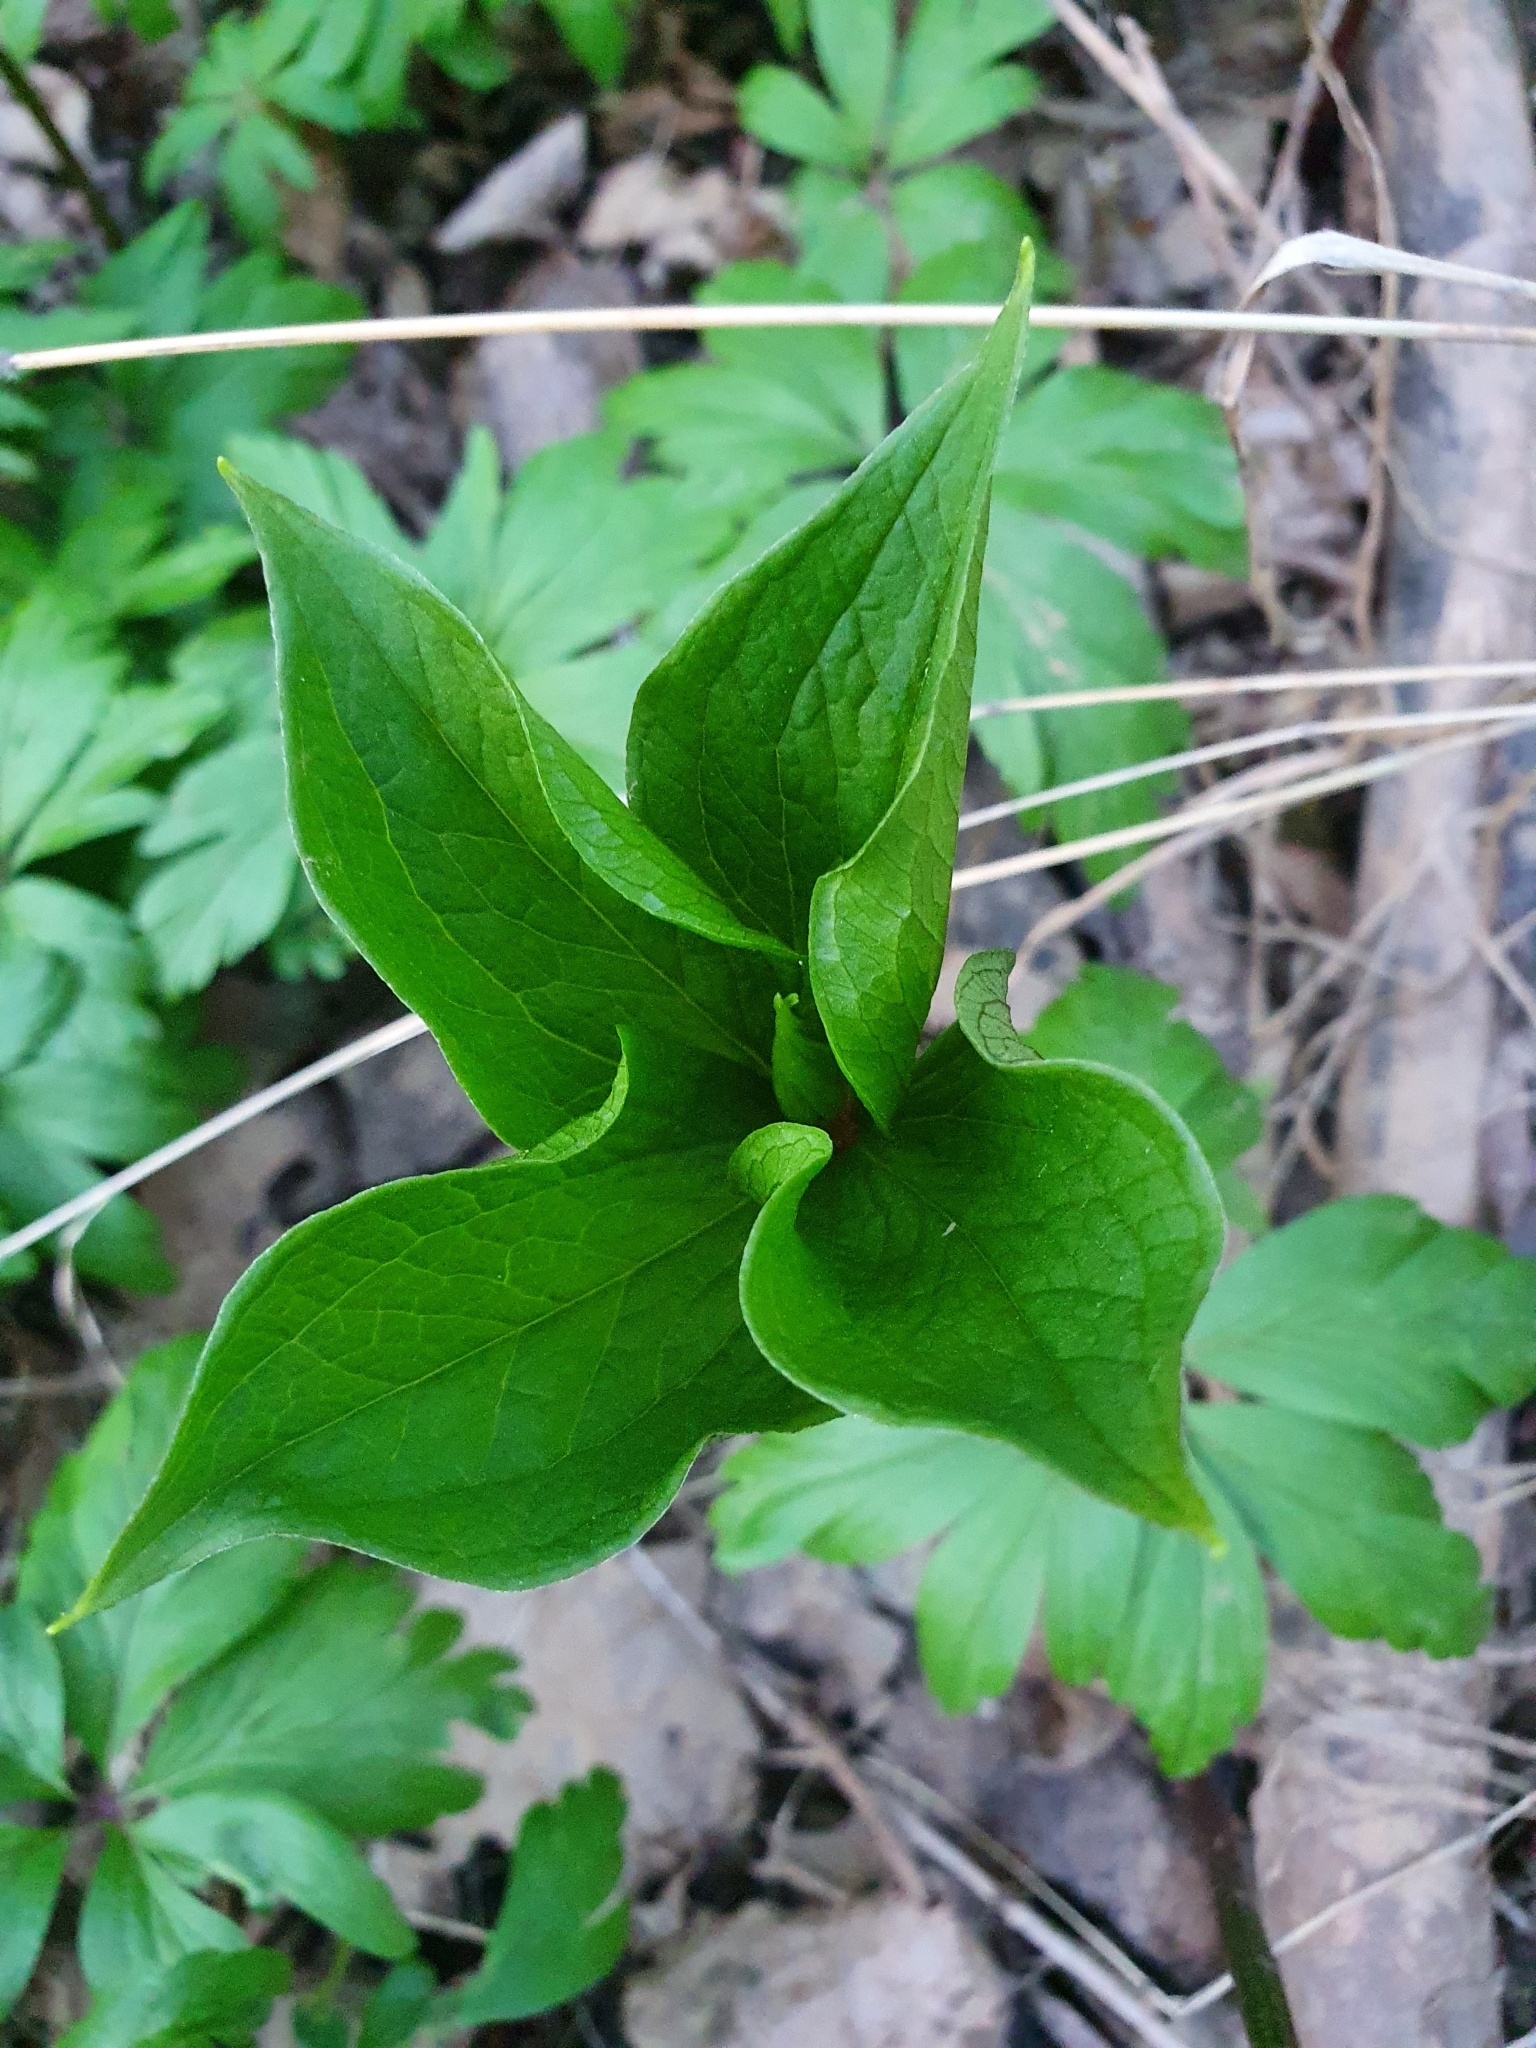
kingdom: Plantae
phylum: Tracheophyta
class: Liliopsida
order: Liliales
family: Melanthiaceae
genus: Paris
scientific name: Paris quadrifolia
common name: Herb-paris
